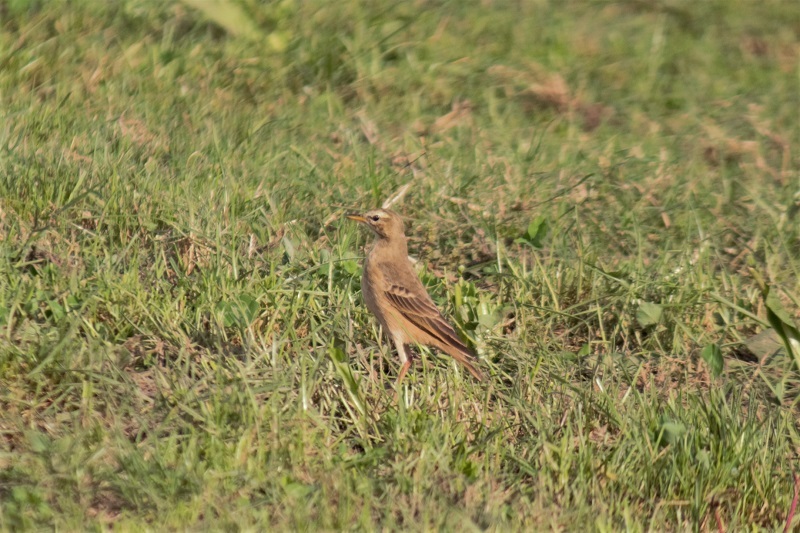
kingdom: Animalia
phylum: Chordata
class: Aves
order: Passeriformes
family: Motacillidae
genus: Anthus
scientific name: Anthus leucophrys
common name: Plain-backed pipit
